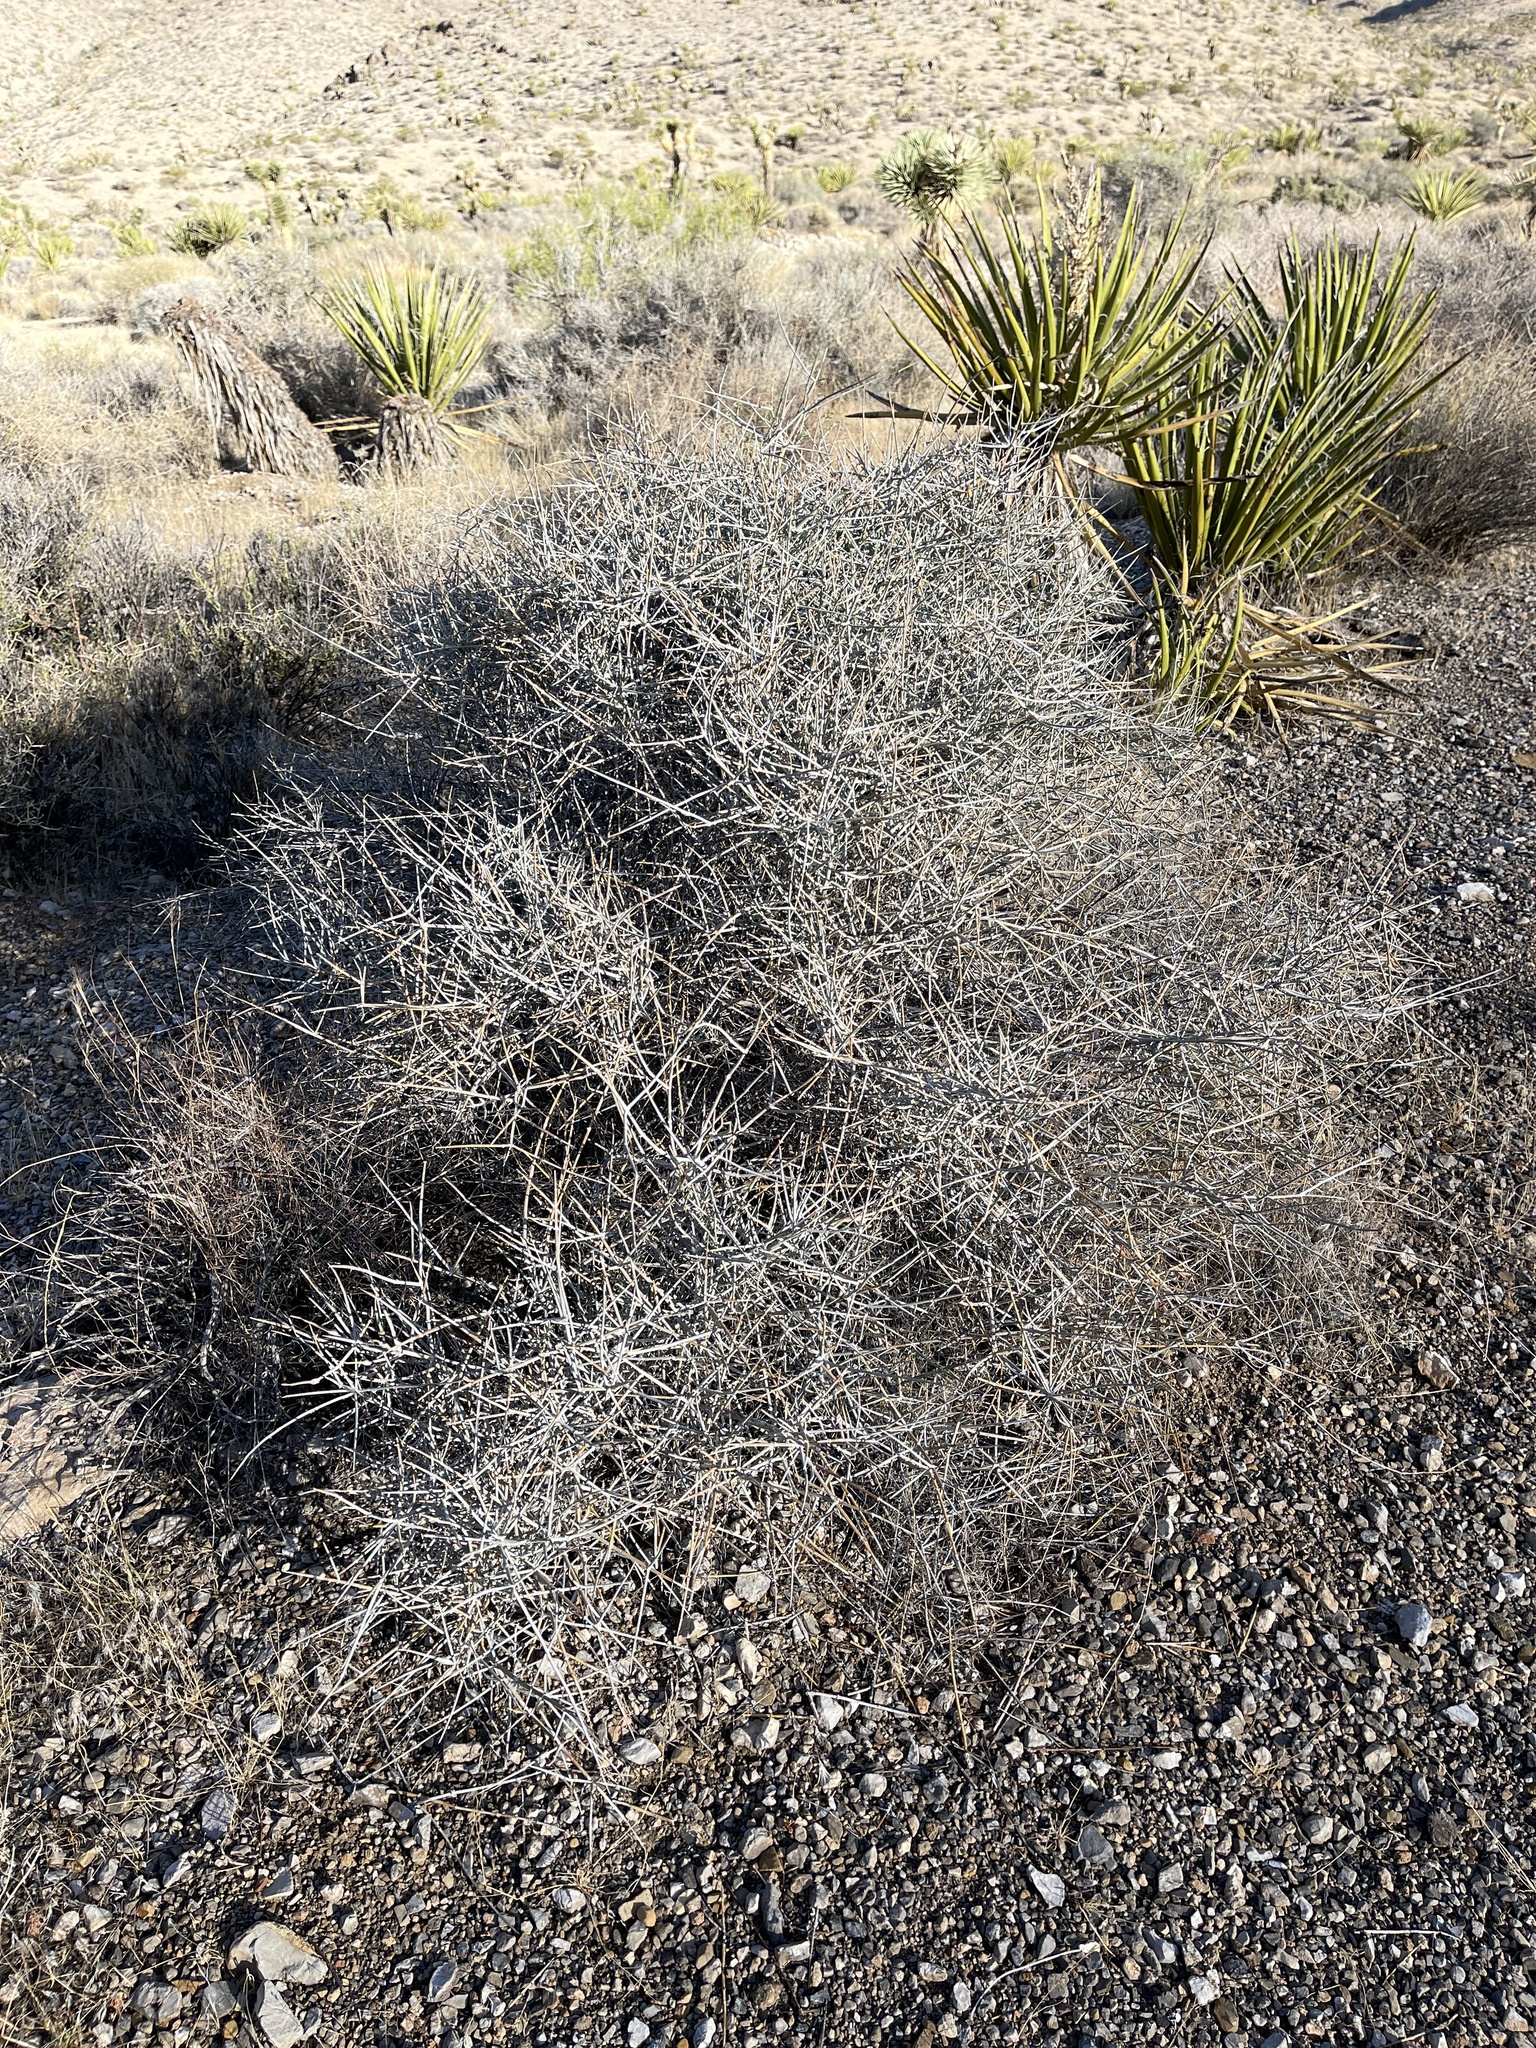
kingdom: Plantae
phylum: Tracheophyta
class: Gnetopsida
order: Ephedrales
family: Ephedraceae
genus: Ephedra
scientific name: Ephedra nevadensis
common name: Gray ephedra
